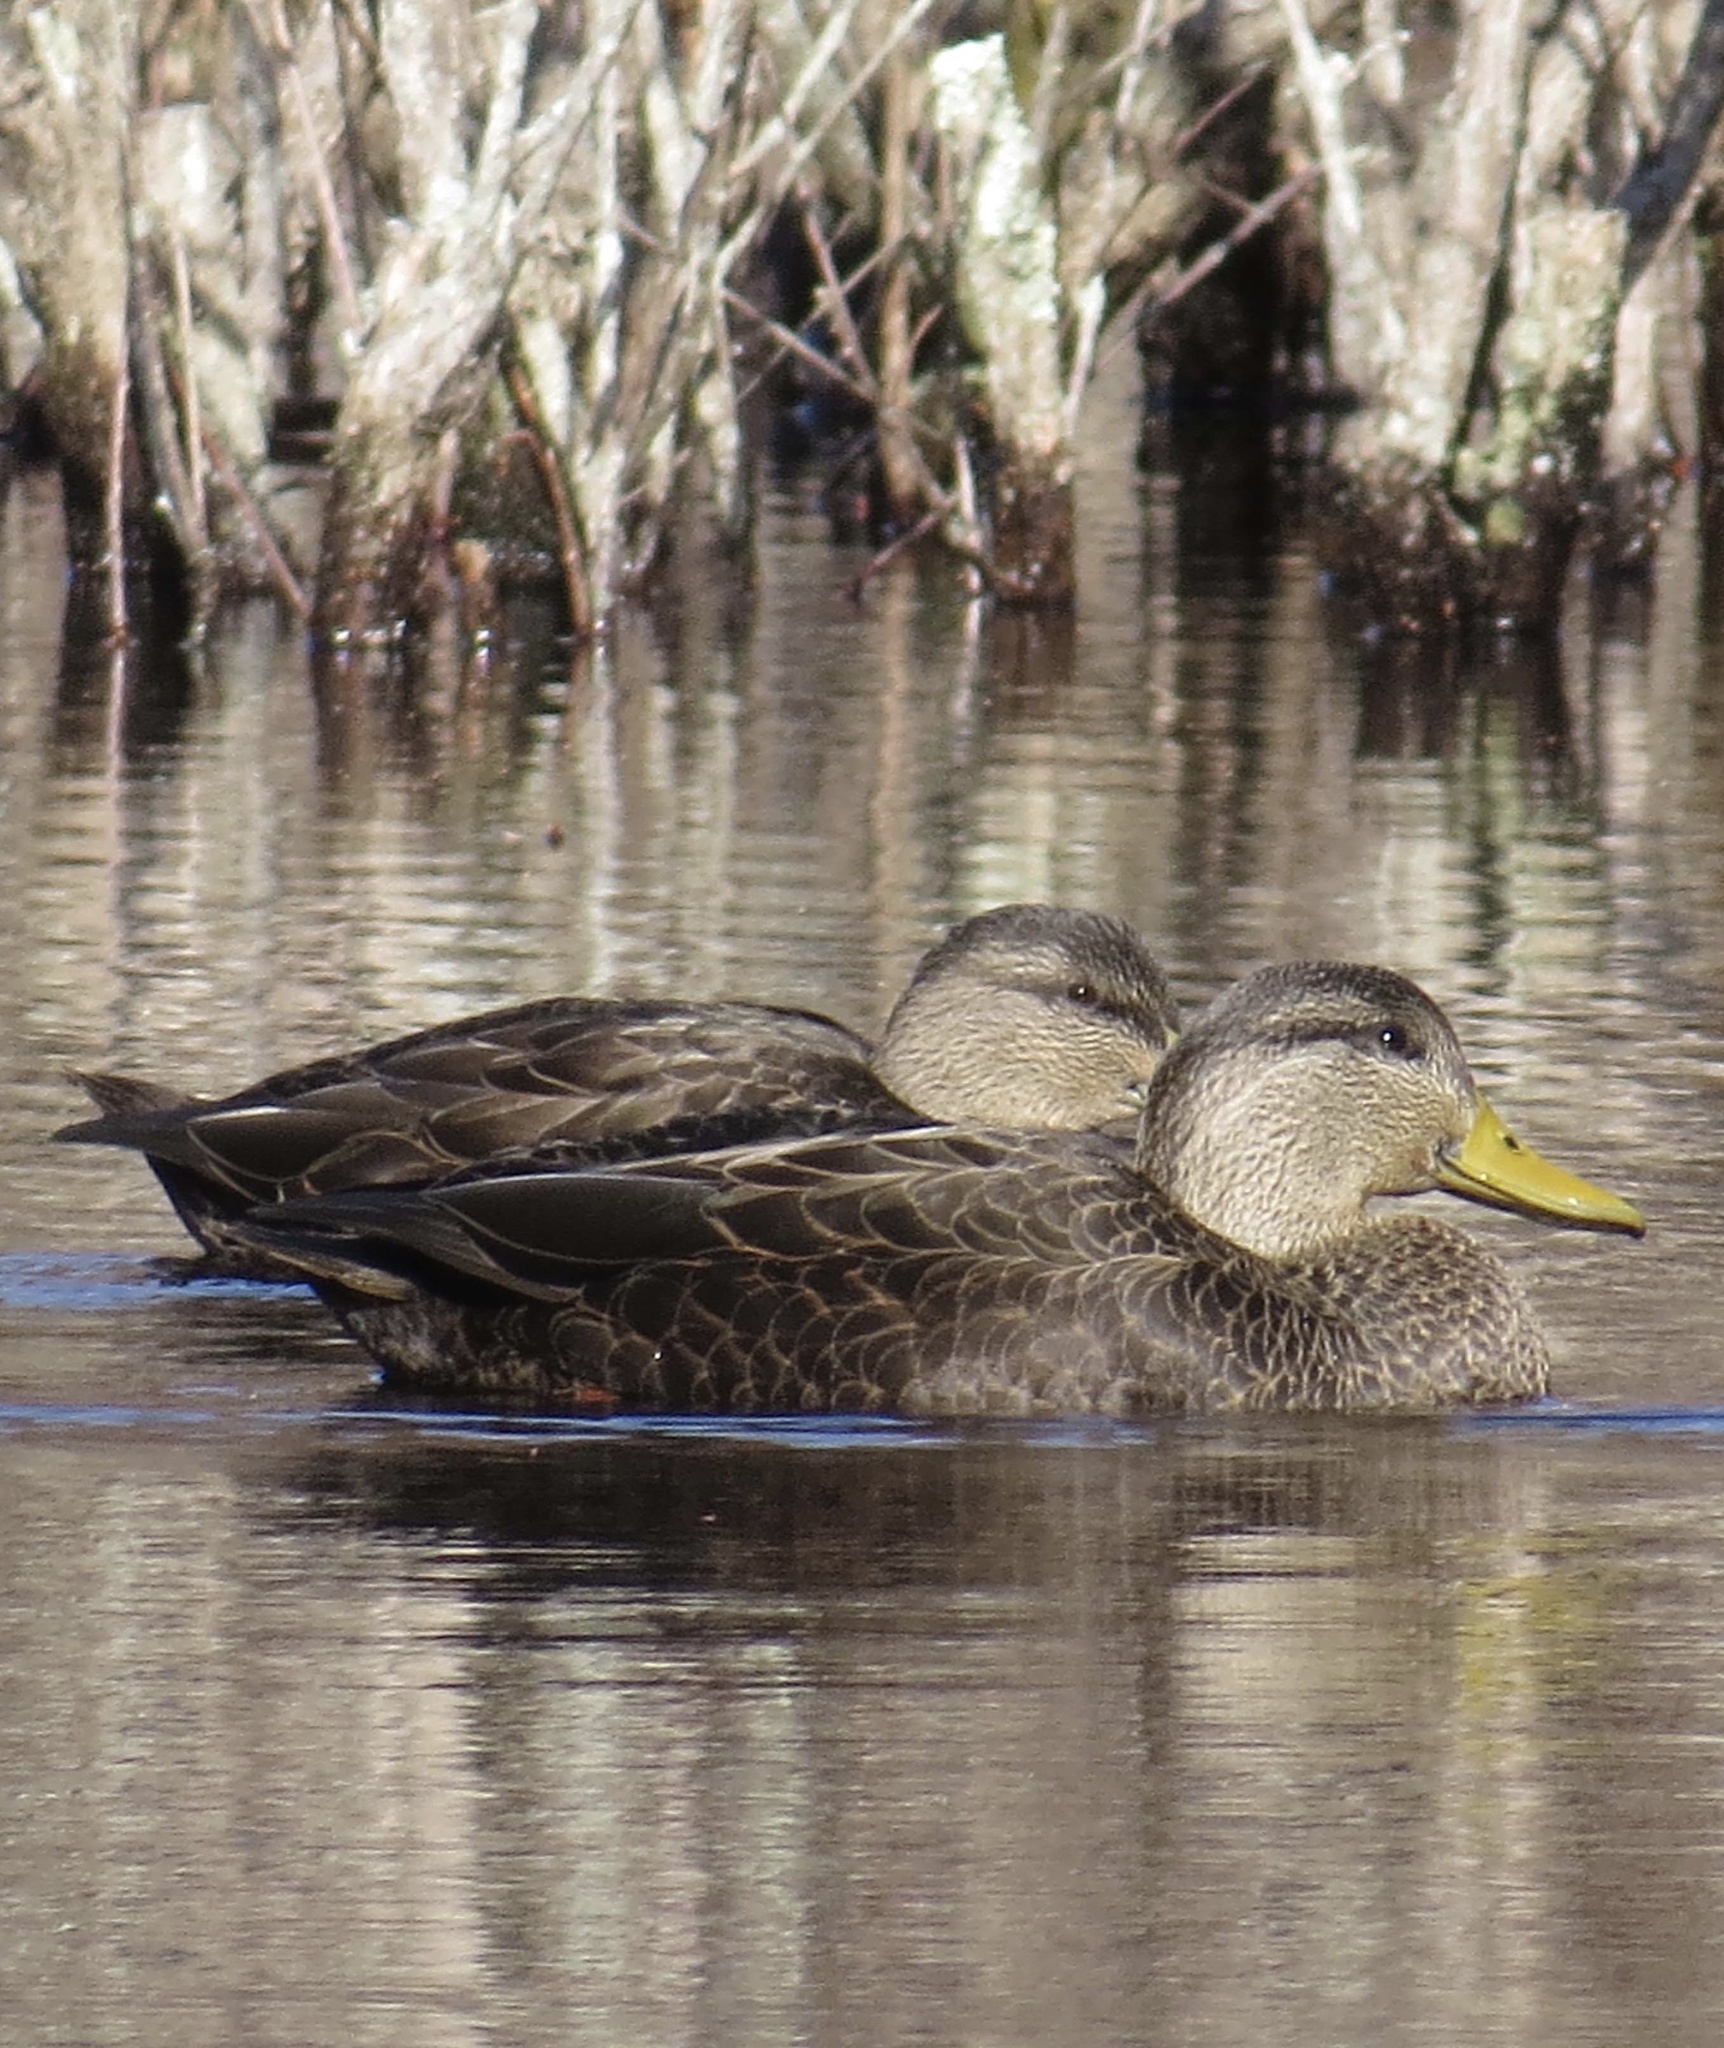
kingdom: Animalia
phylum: Chordata
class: Aves
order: Anseriformes
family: Anatidae
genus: Anas
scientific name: Anas rubripes
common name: American black duck
